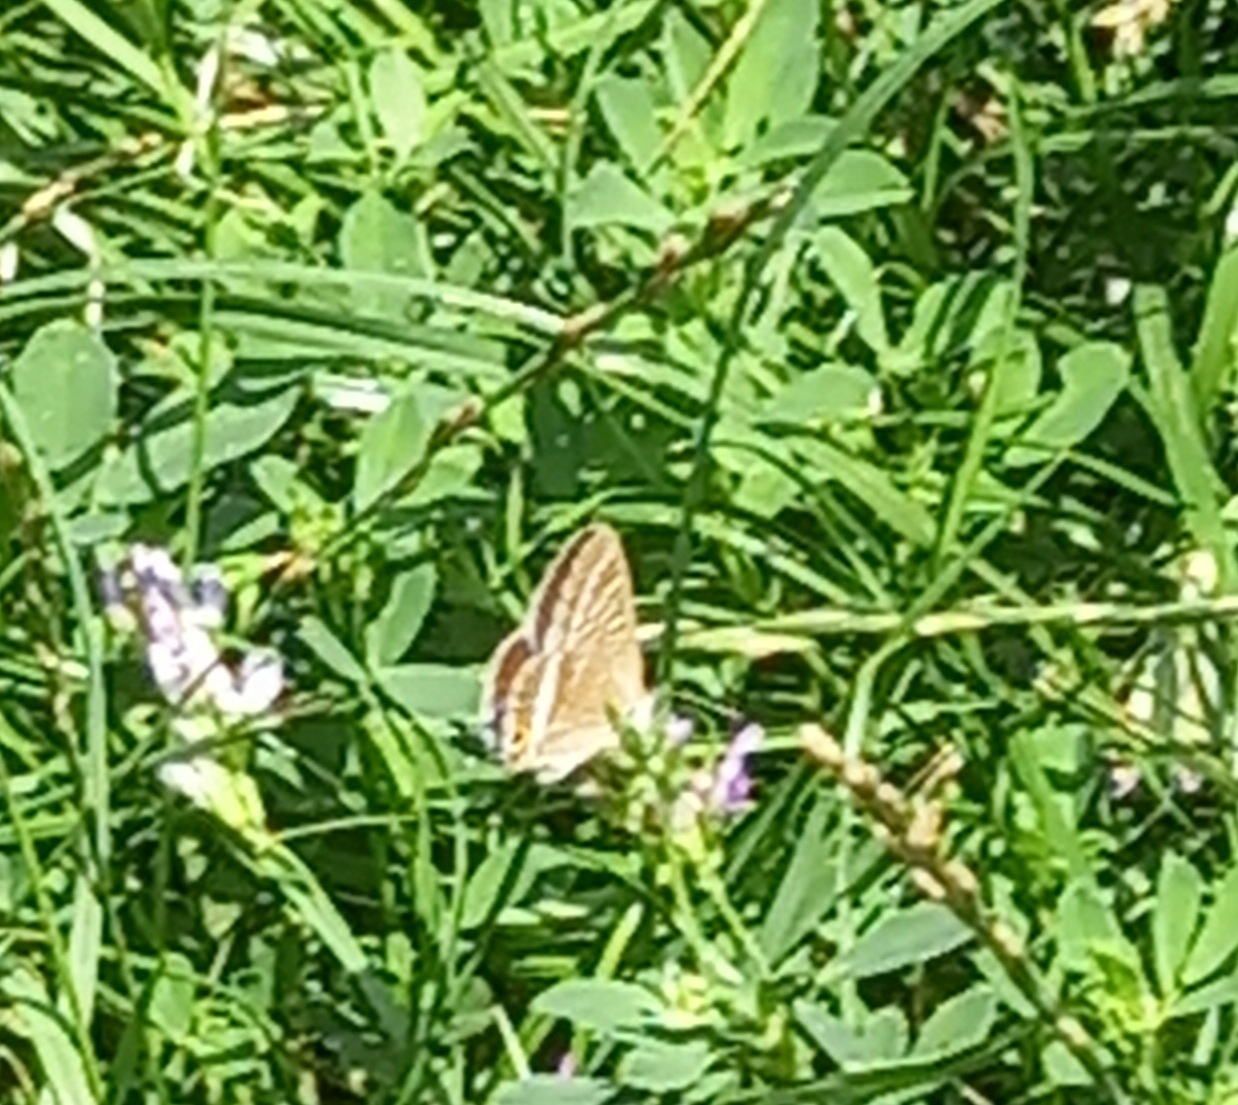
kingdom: Animalia
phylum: Arthropoda
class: Insecta
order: Lepidoptera
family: Lycaenidae
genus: Lampides
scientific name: Lampides boeticus
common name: Long-tailed blue
